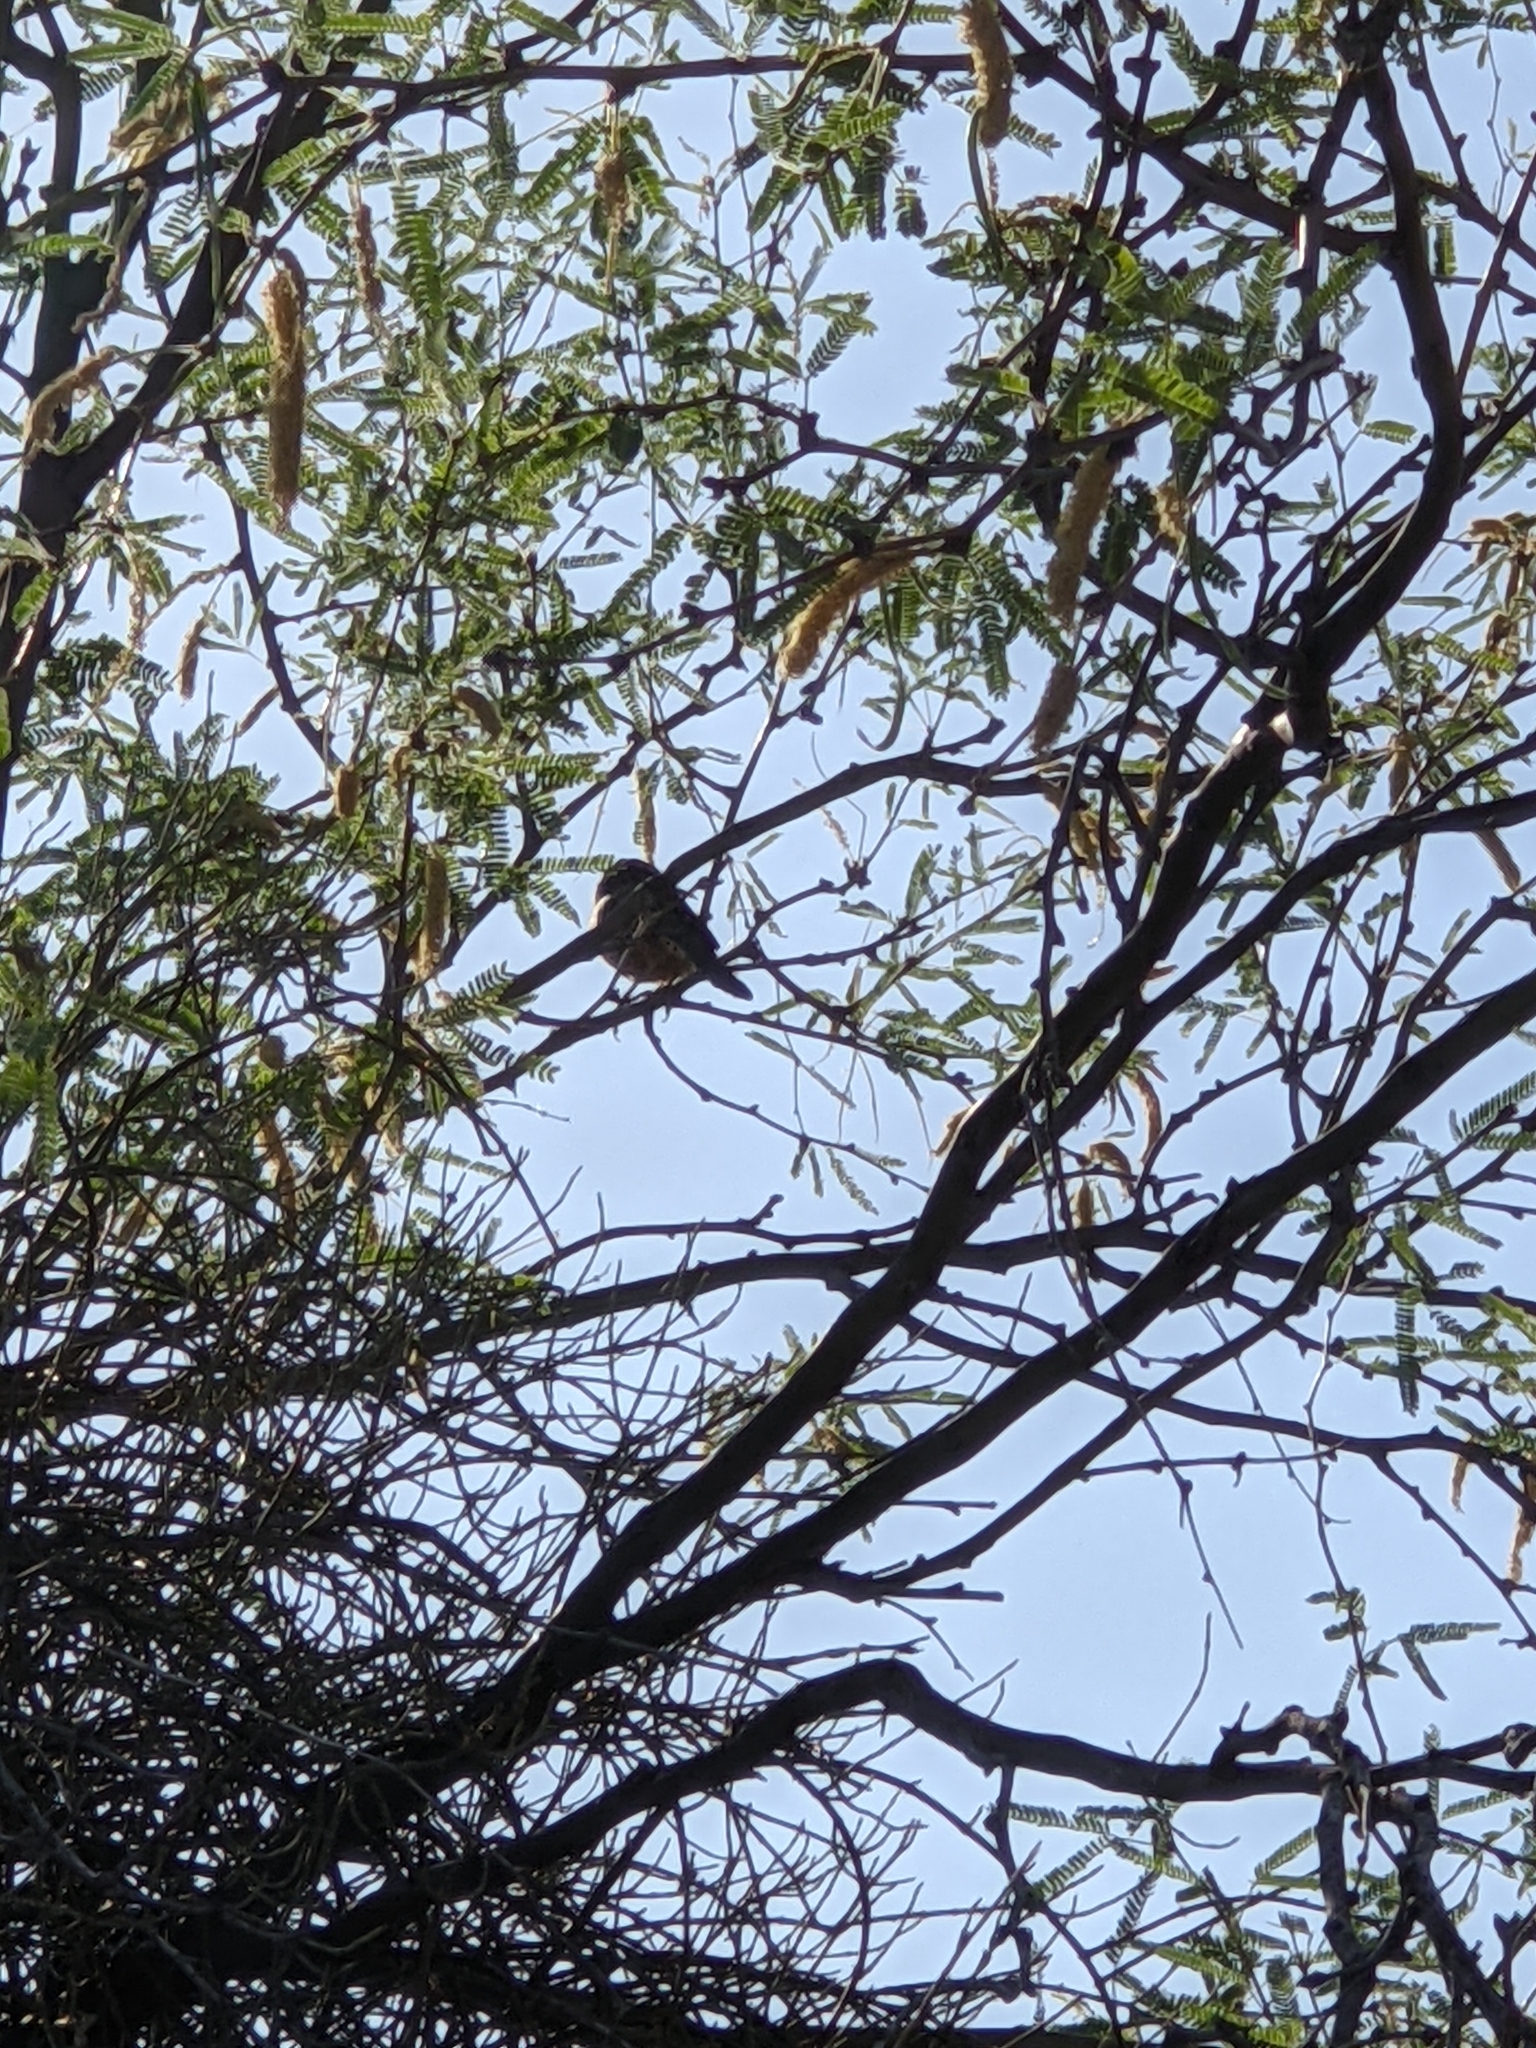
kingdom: Animalia
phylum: Chordata
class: Aves
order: Passeriformes
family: Troglodytidae
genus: Campylorhynchus
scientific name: Campylorhynchus brunneicapillus
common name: Cactus wren
